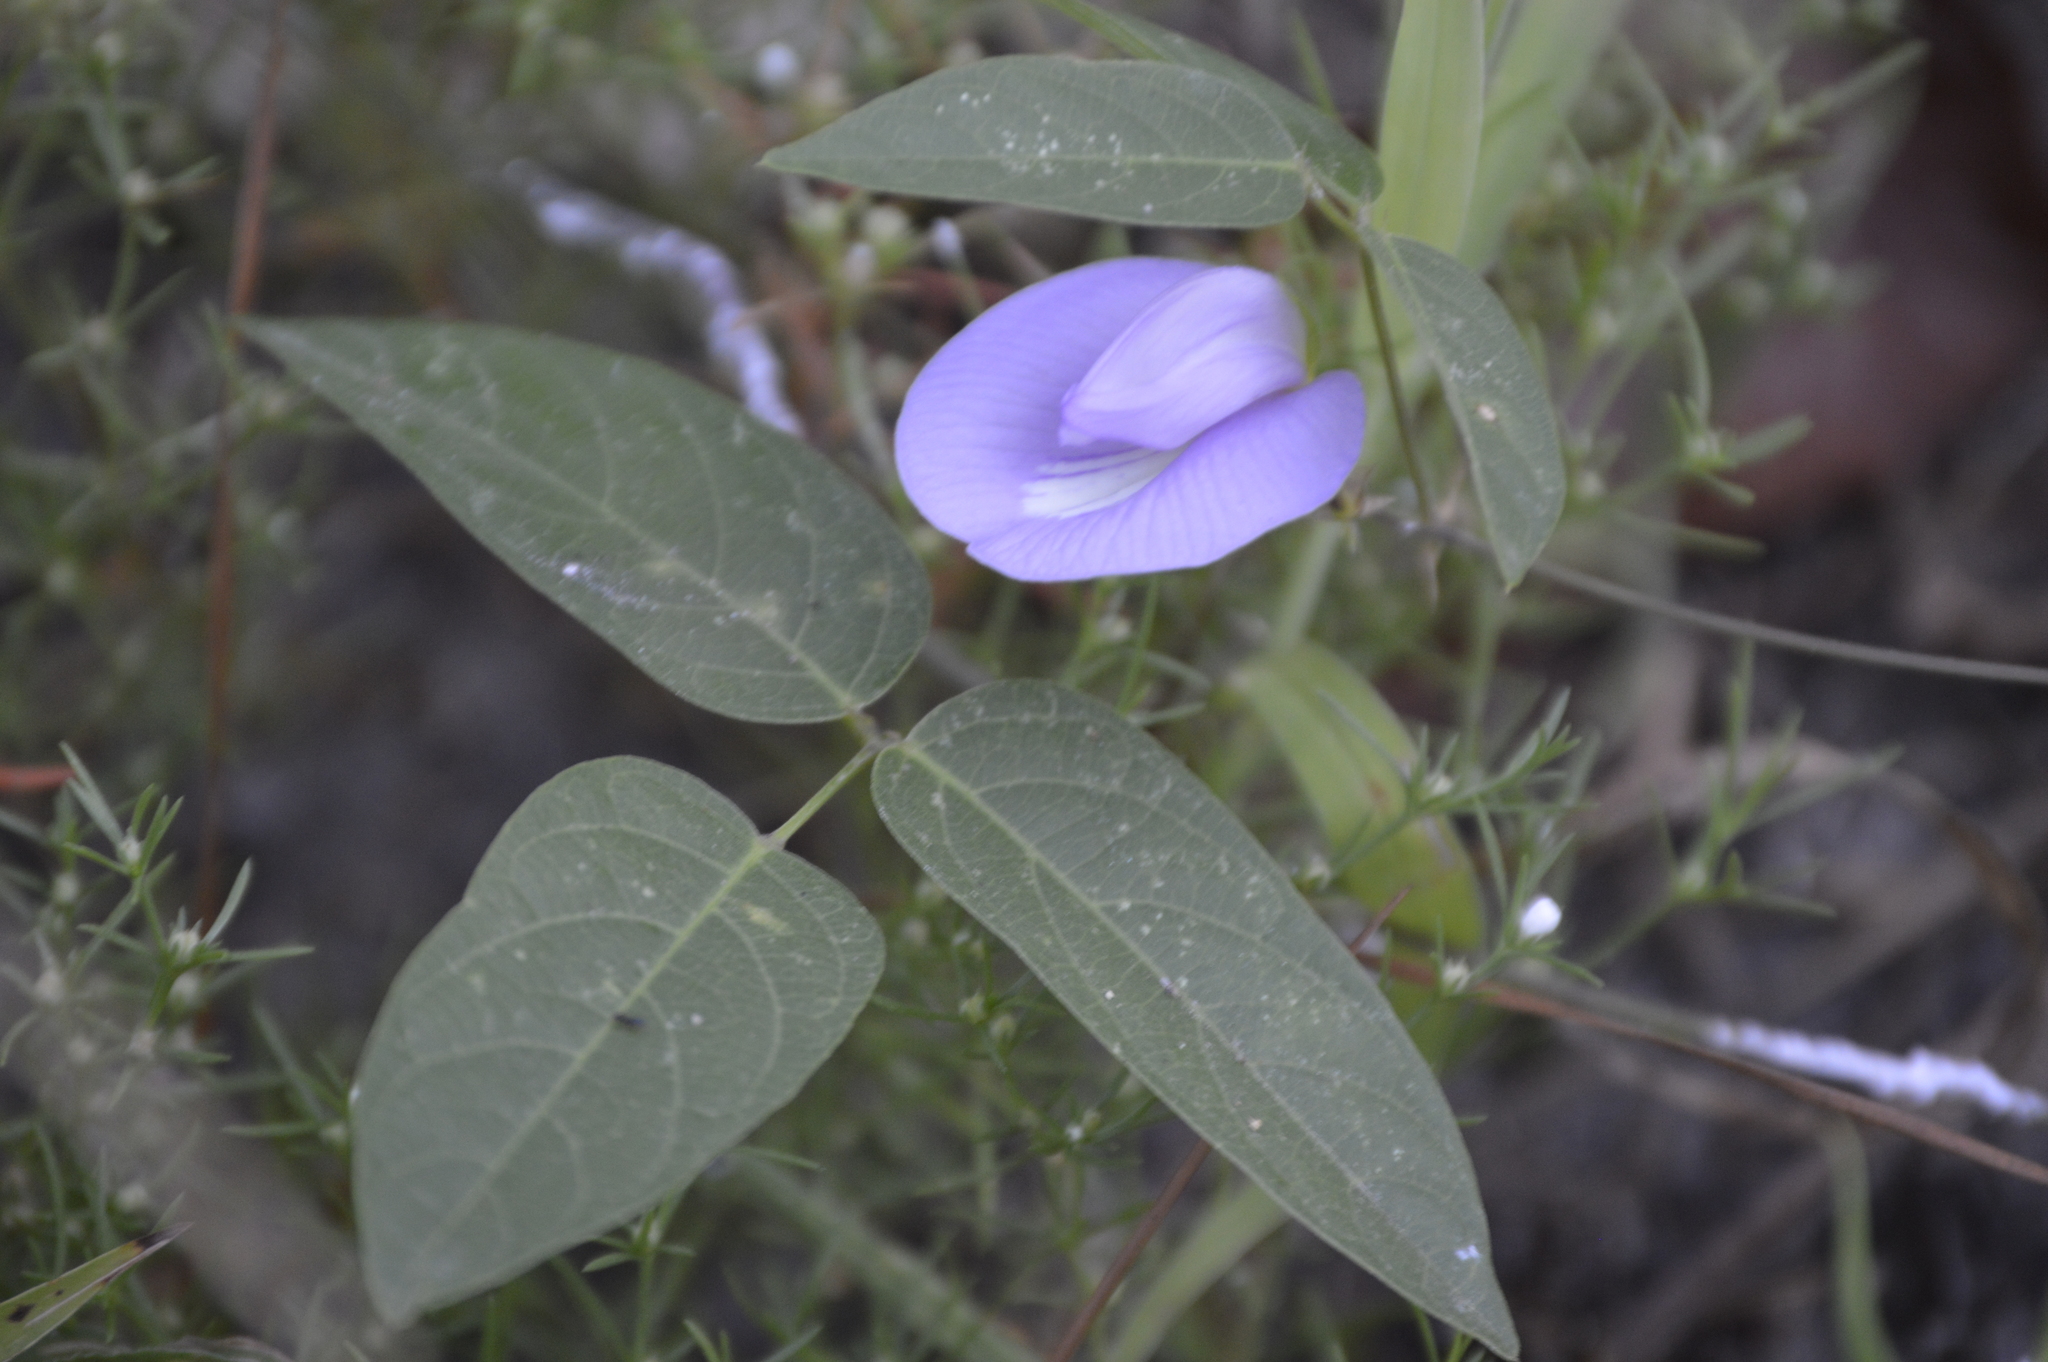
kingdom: Plantae
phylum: Tracheophyta
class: Magnoliopsida
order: Fabales
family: Fabaceae
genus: Centrosema
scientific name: Centrosema virginianum
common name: Butterfly-pea
